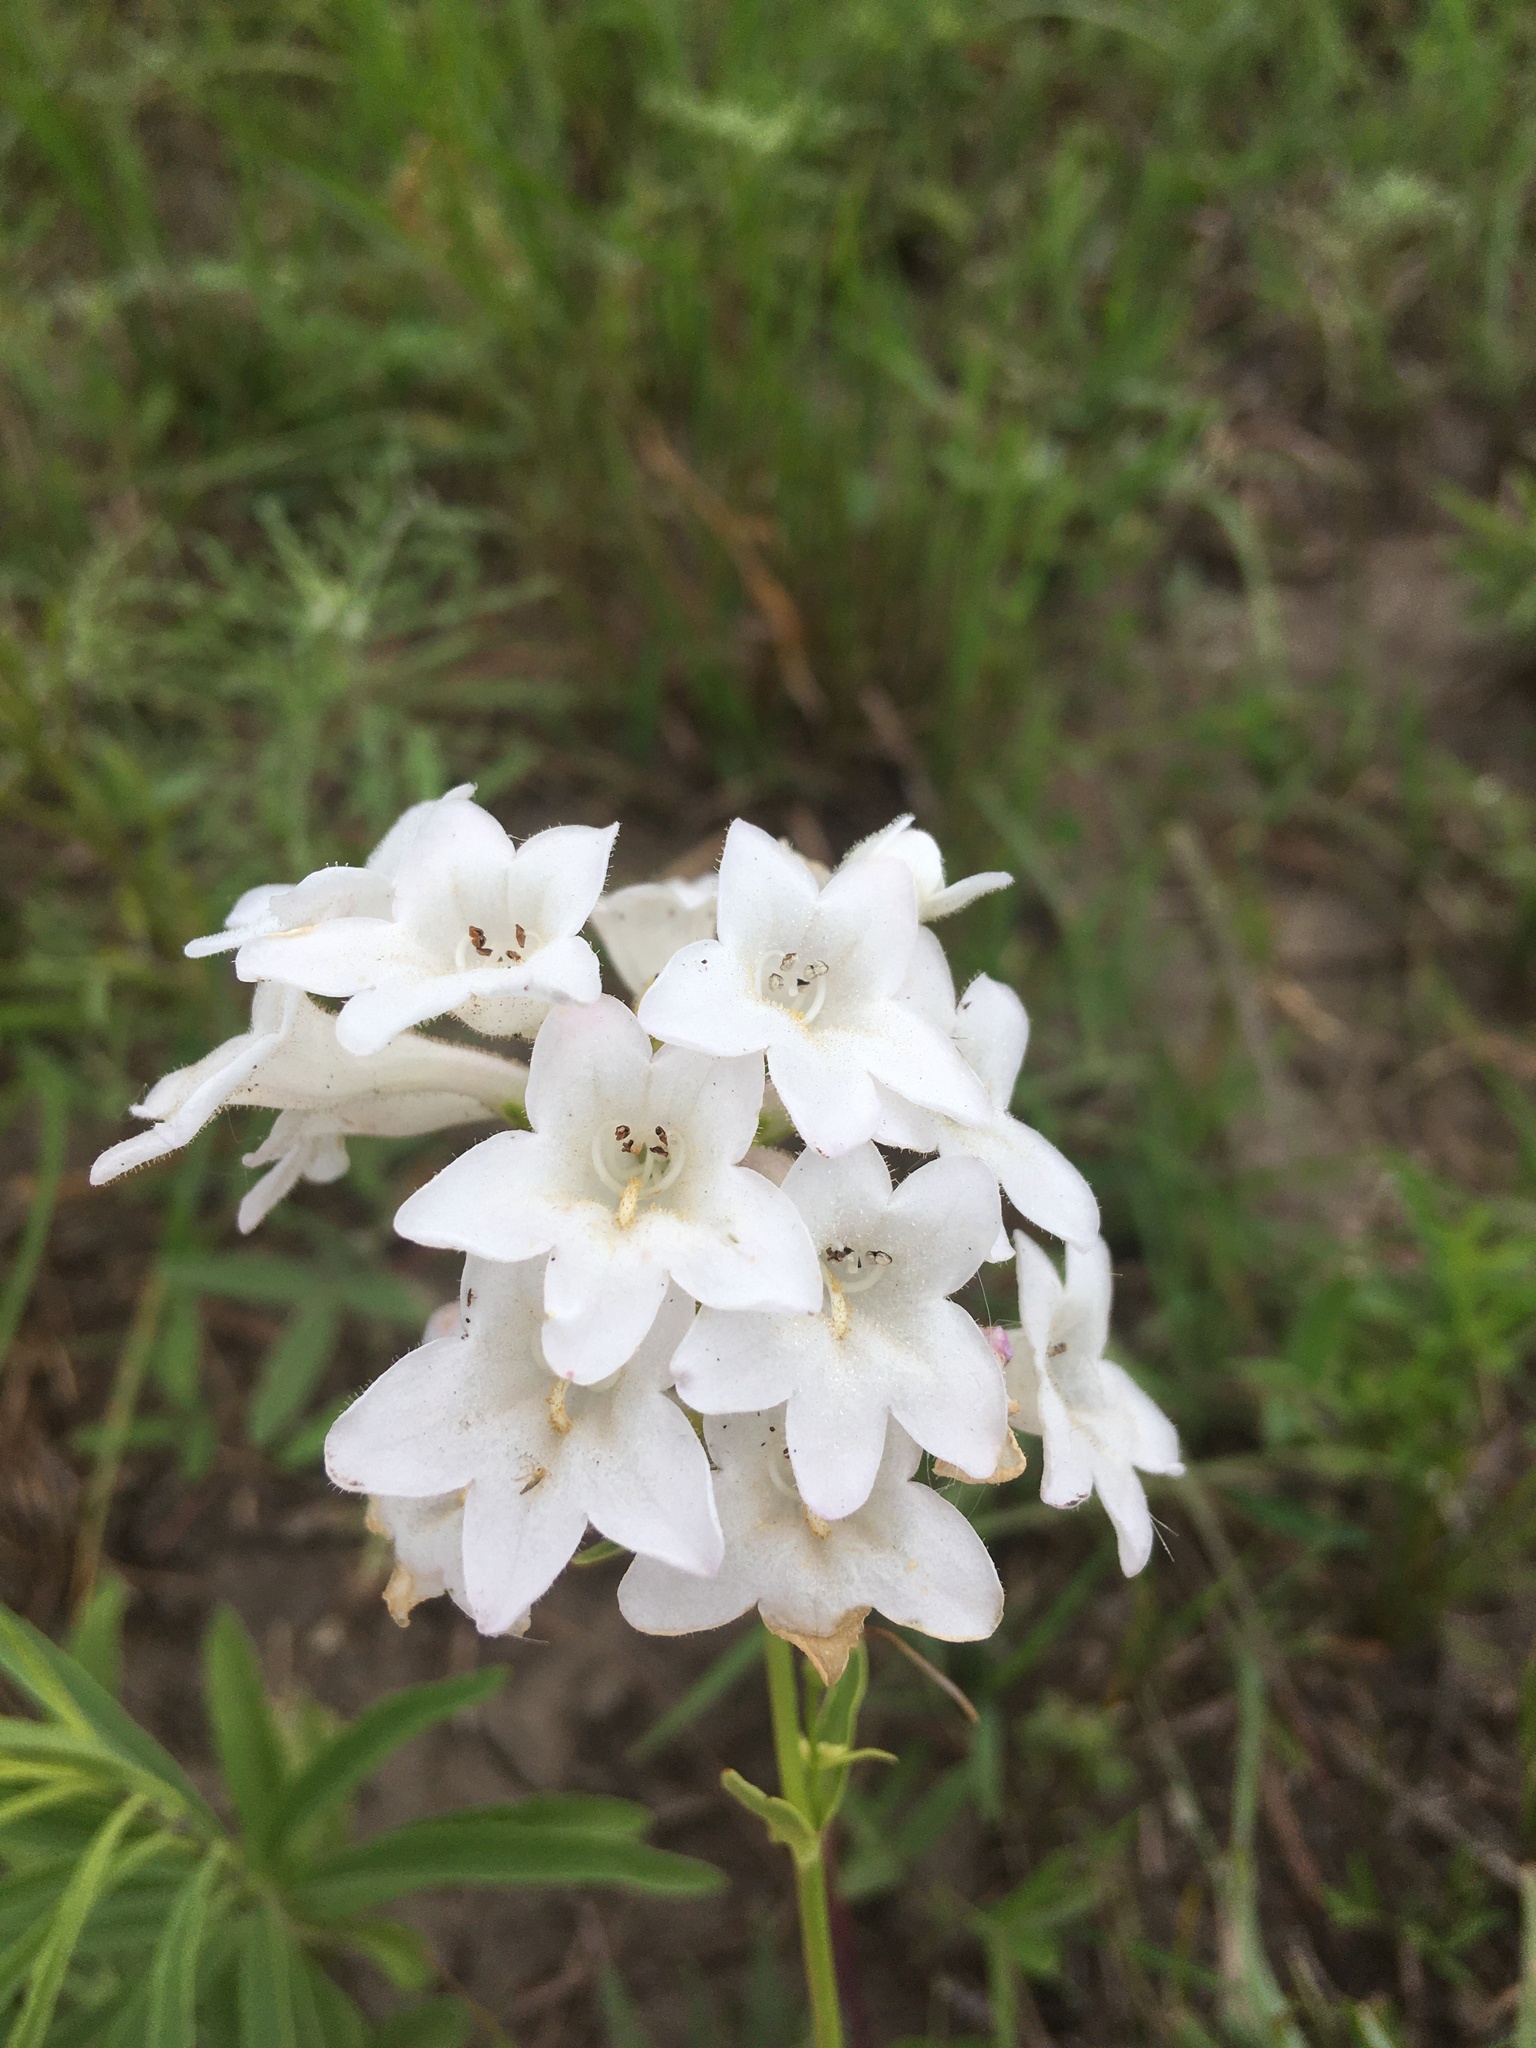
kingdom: Plantae
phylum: Tracheophyta
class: Magnoliopsida
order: Lamiales
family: Plantaginaceae
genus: Penstemon
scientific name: Penstemon tubaeflorus
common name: White wand beardtongue
